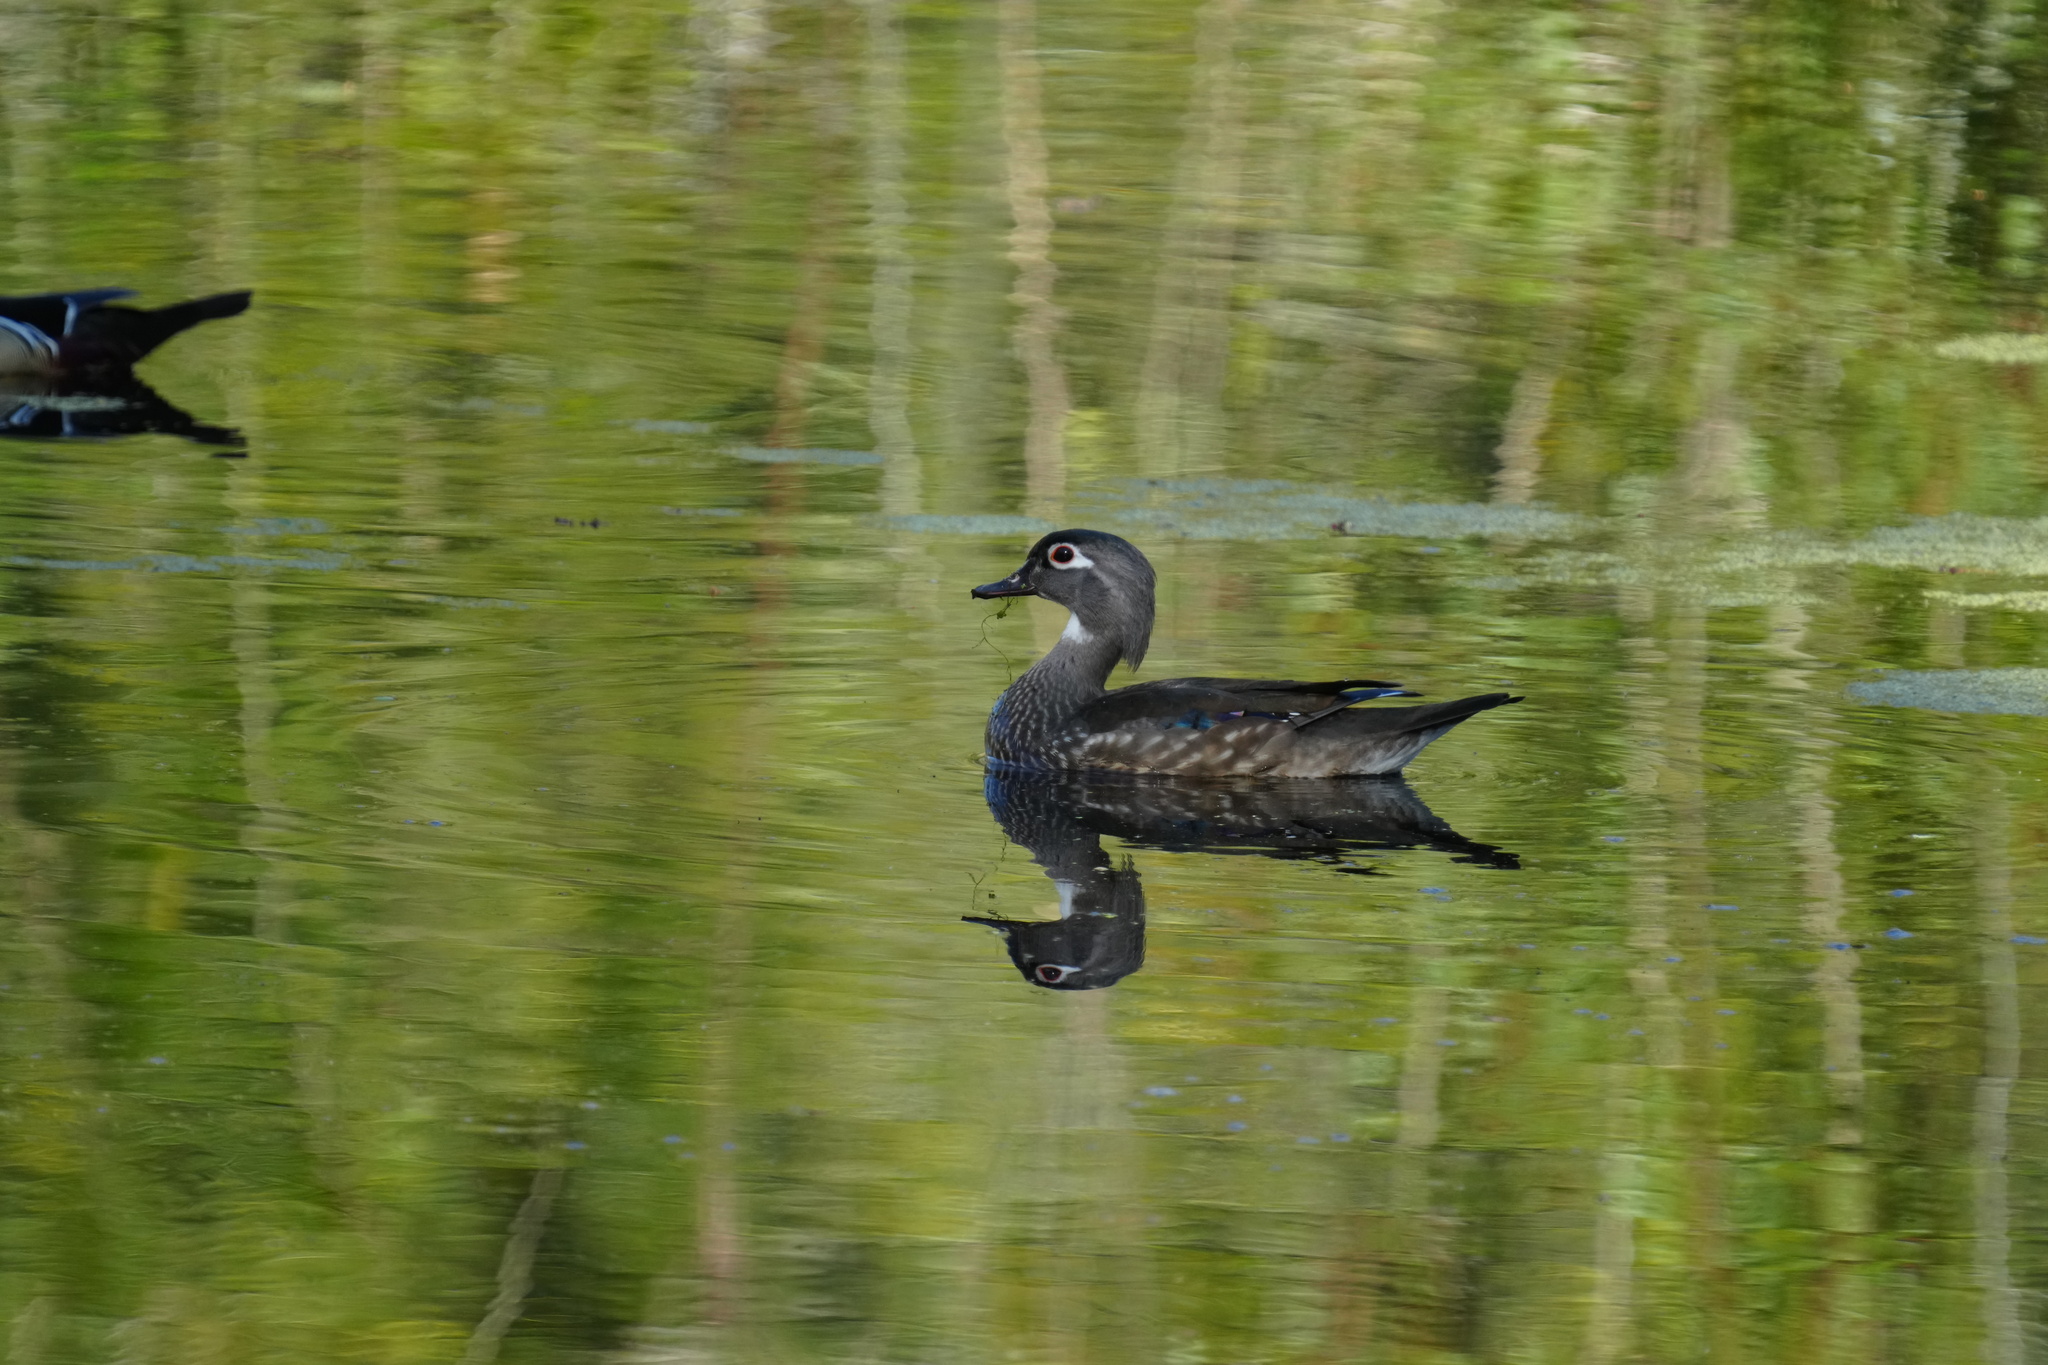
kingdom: Animalia
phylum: Chordata
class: Aves
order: Anseriformes
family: Anatidae
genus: Aix
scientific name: Aix sponsa
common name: Wood duck
